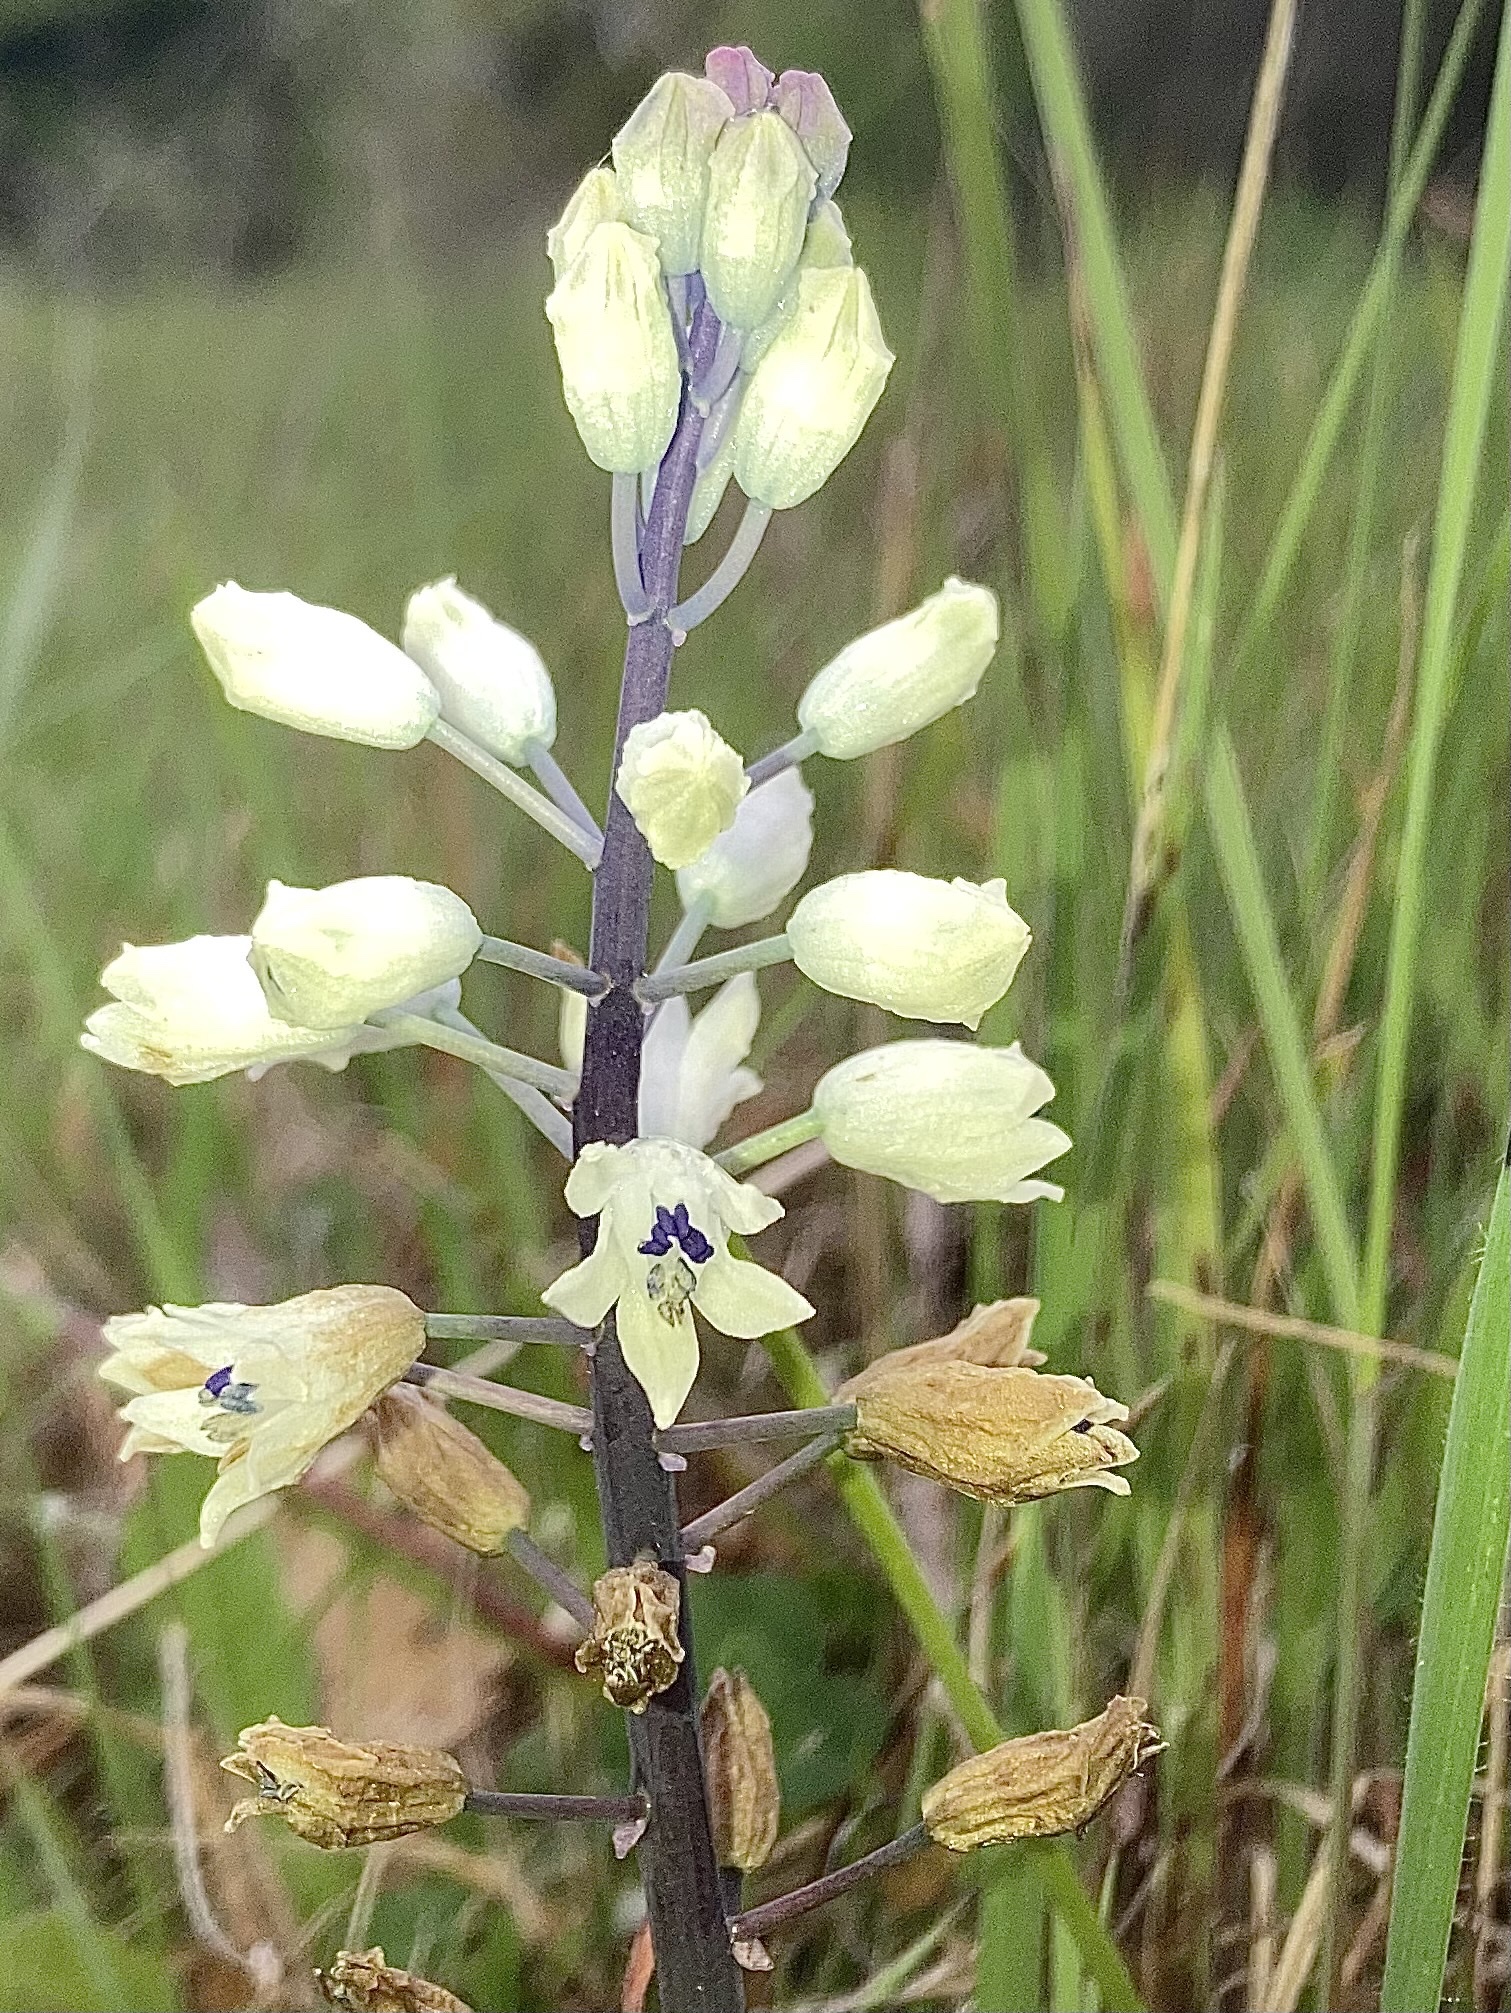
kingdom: Plantae
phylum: Tracheophyta
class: Liliopsida
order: Asparagales
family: Asparagaceae
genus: Bellevalia
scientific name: Bellevalia romana
